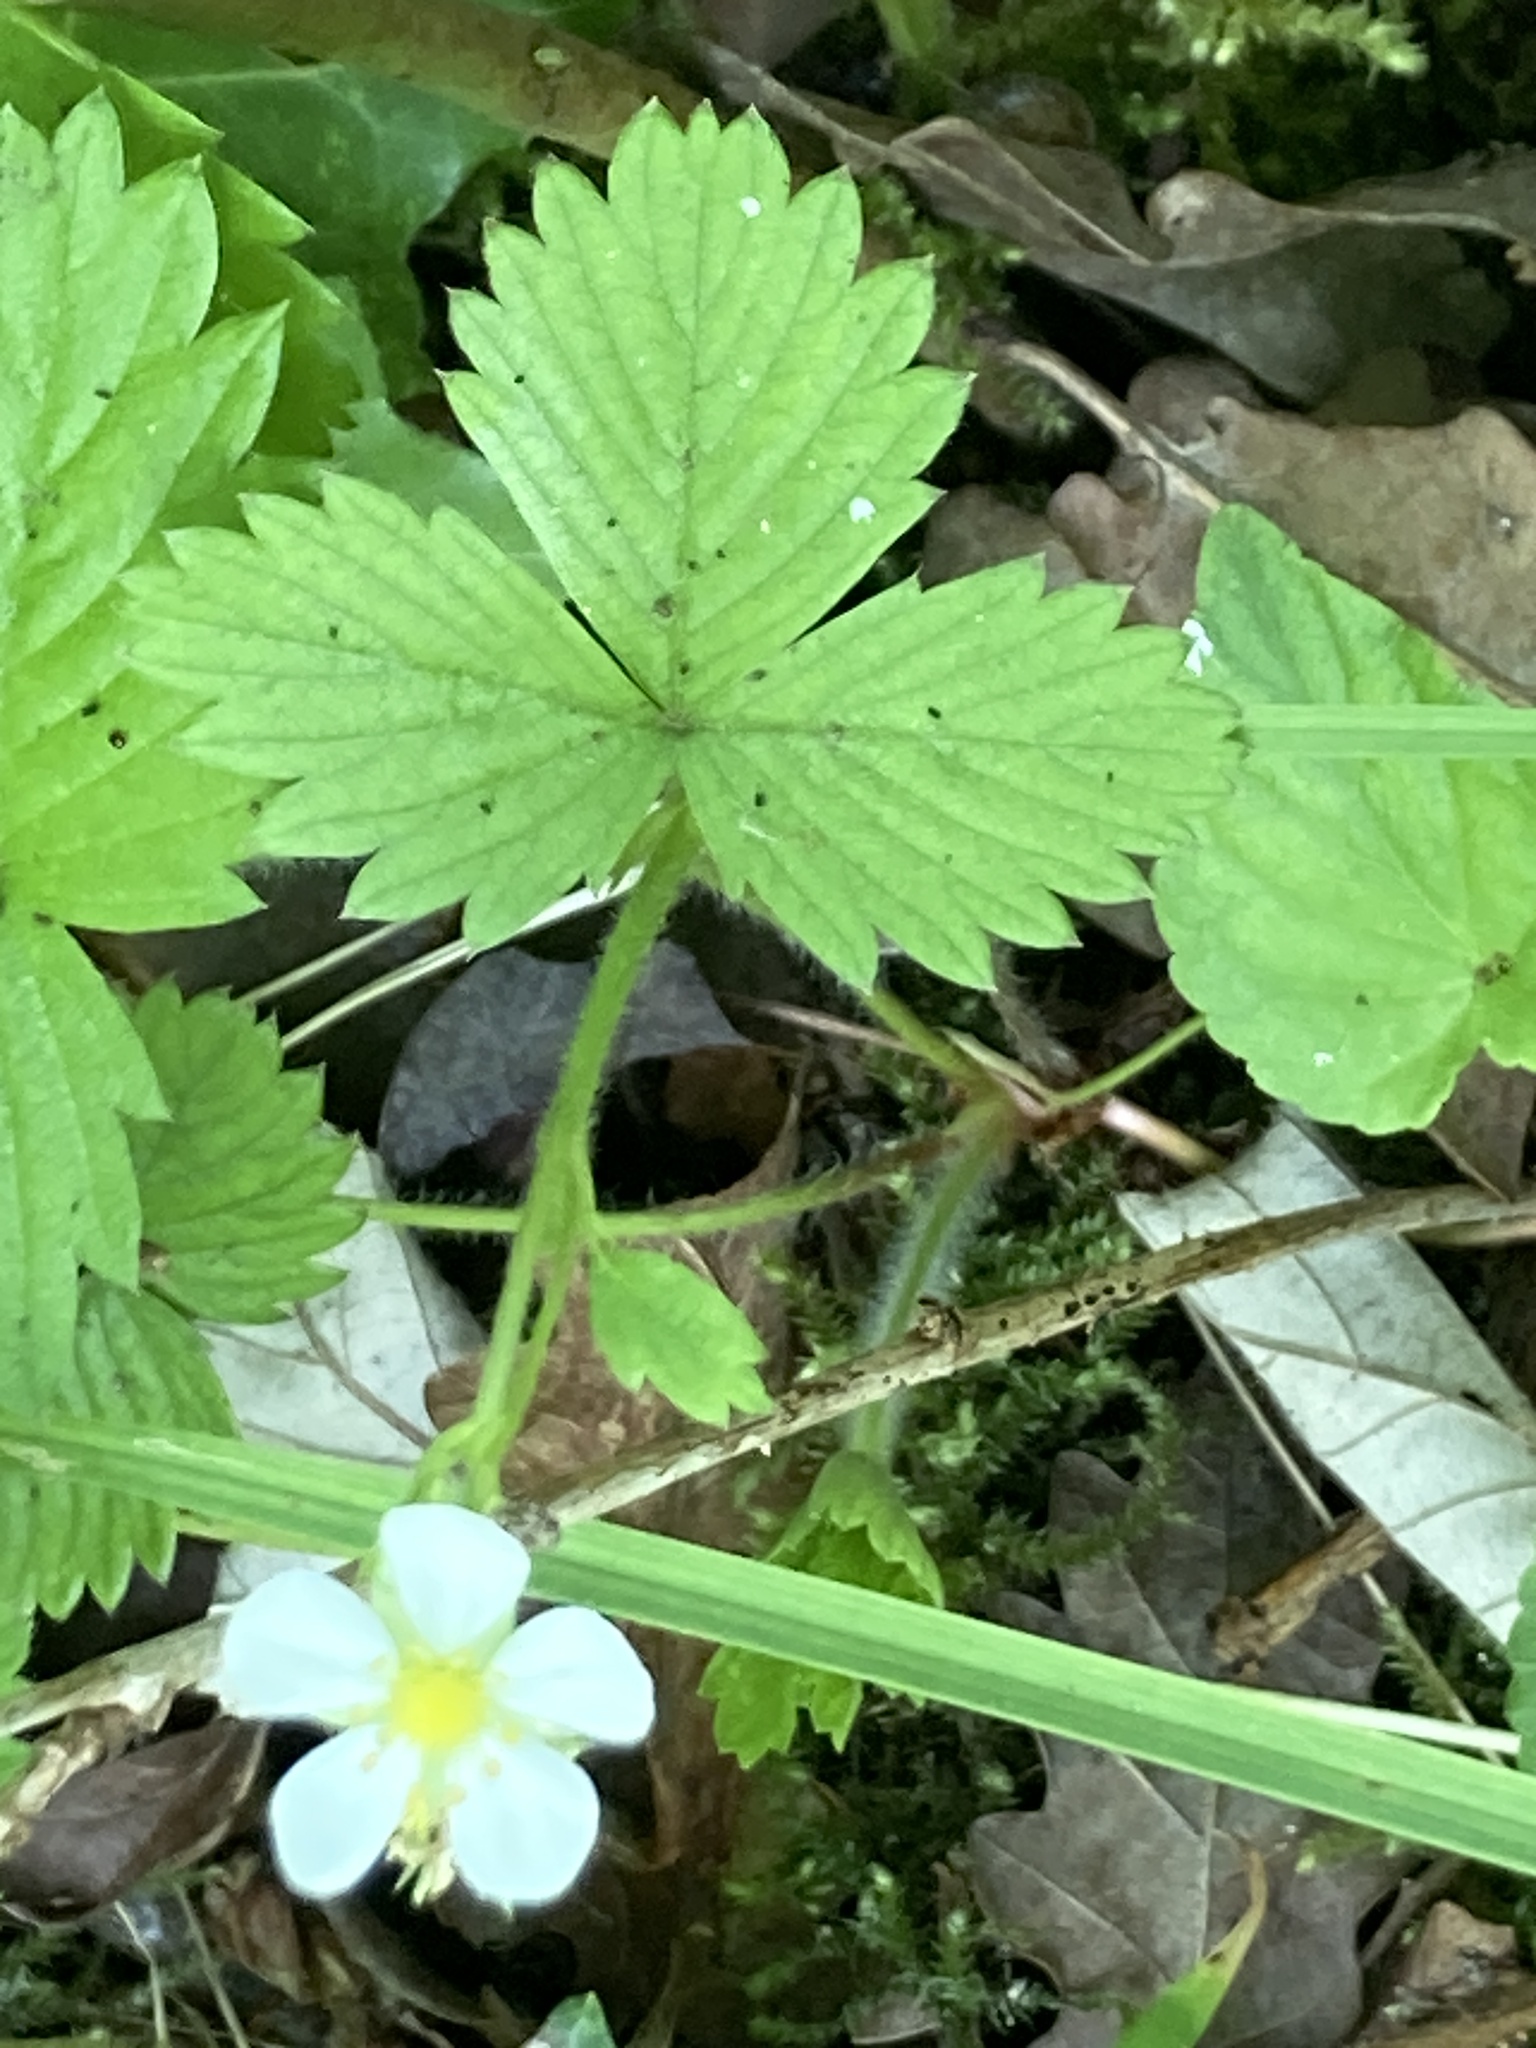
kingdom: Plantae
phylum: Tracheophyta
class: Magnoliopsida
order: Rosales
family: Rosaceae
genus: Fragaria
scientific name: Fragaria vesca
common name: Wild strawberry
